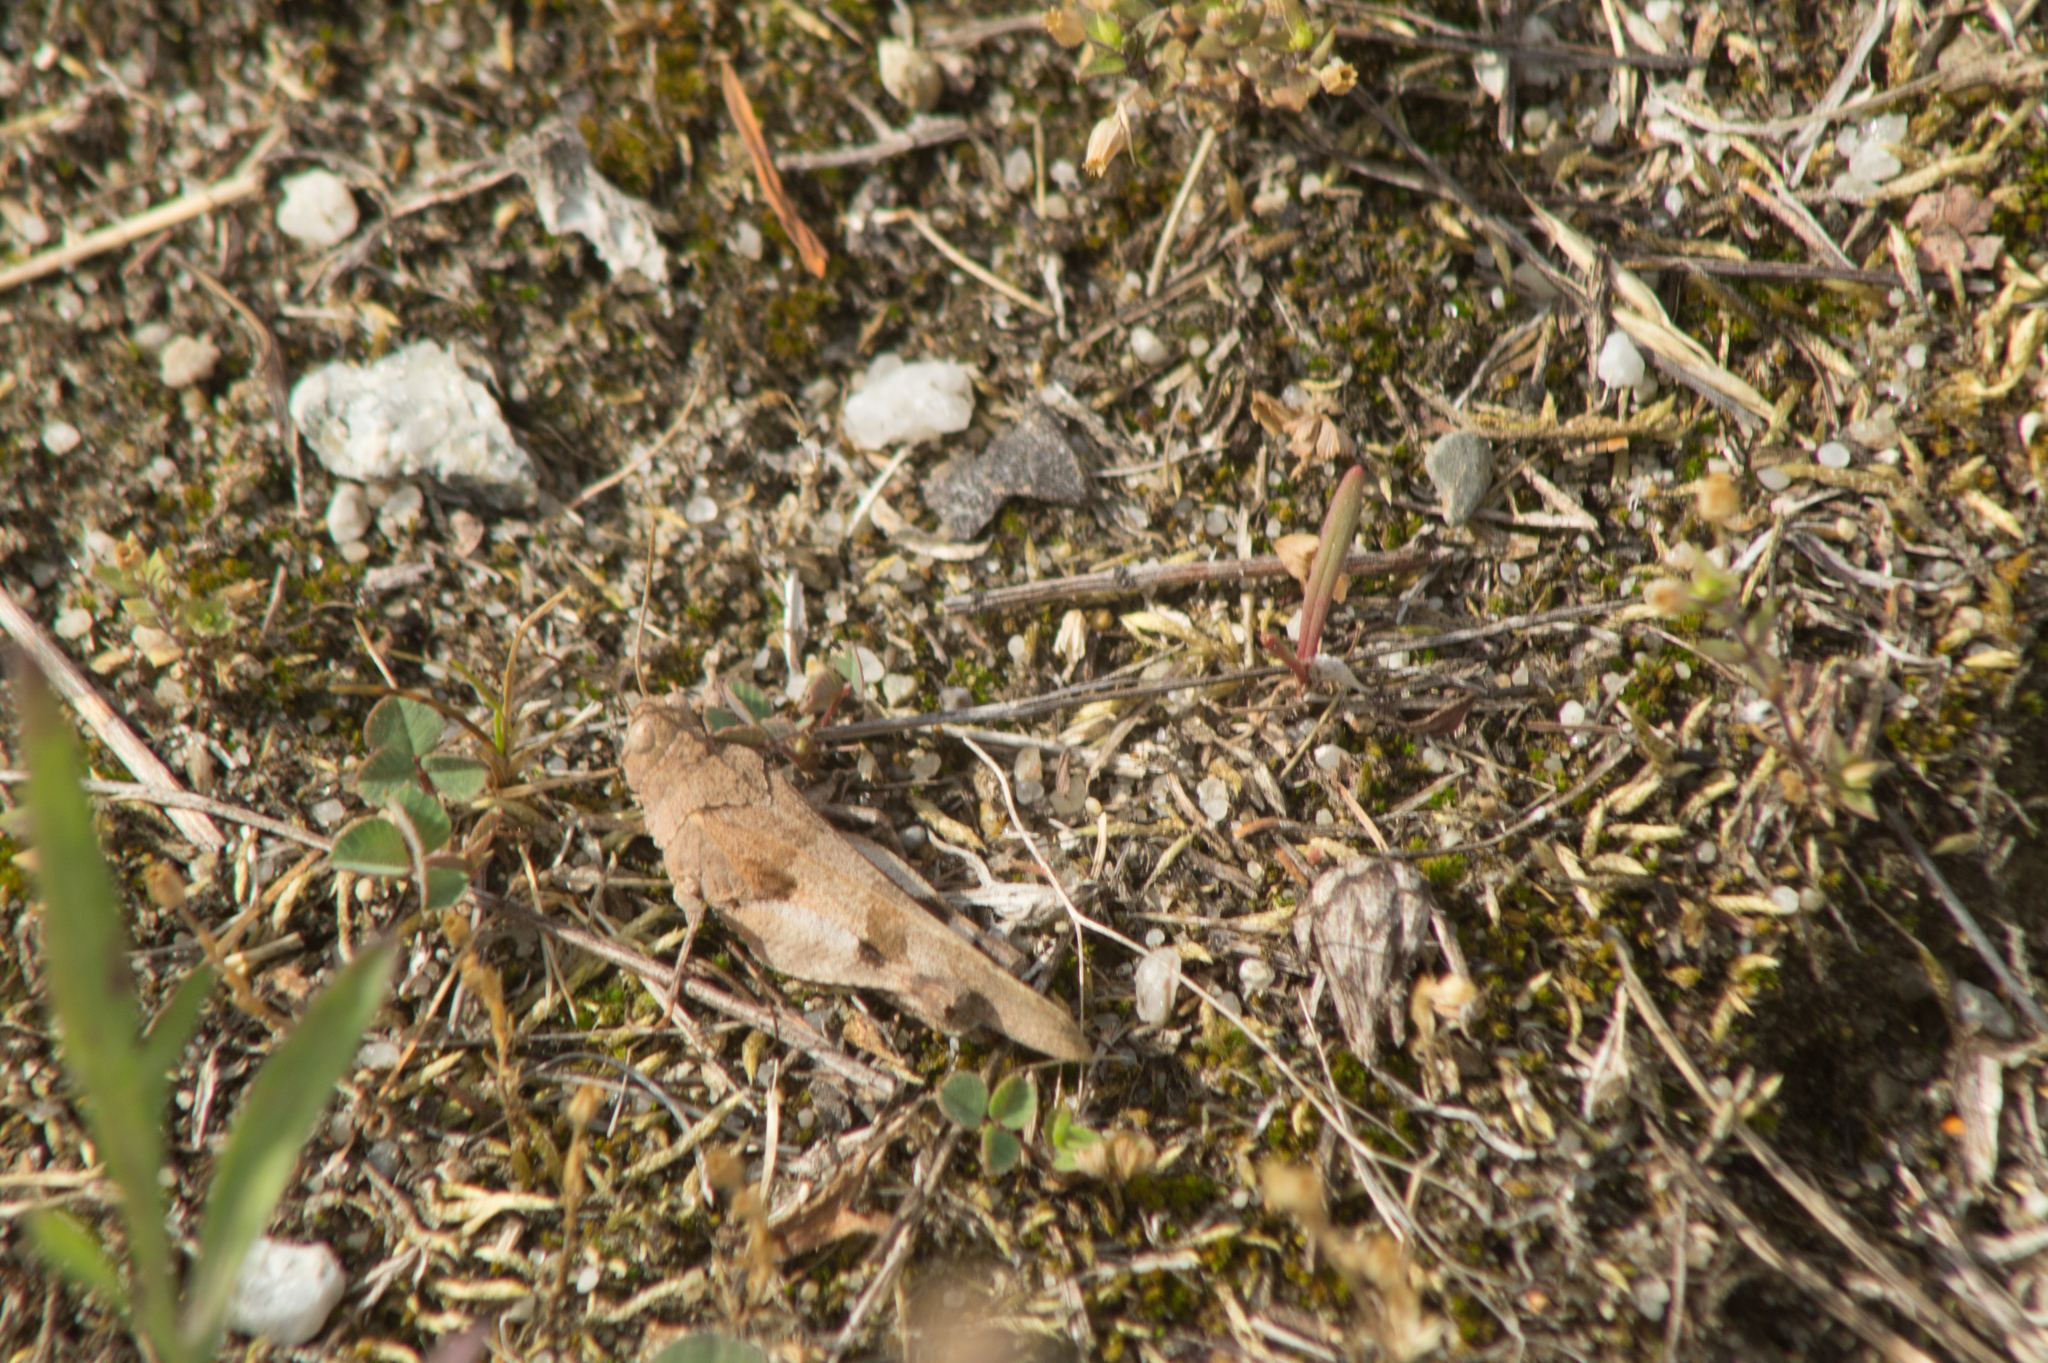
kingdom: Animalia
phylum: Arthropoda
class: Insecta
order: Orthoptera
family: Acrididae
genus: Oedipoda
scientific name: Oedipoda caerulescens
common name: Blue-winged grasshopper
